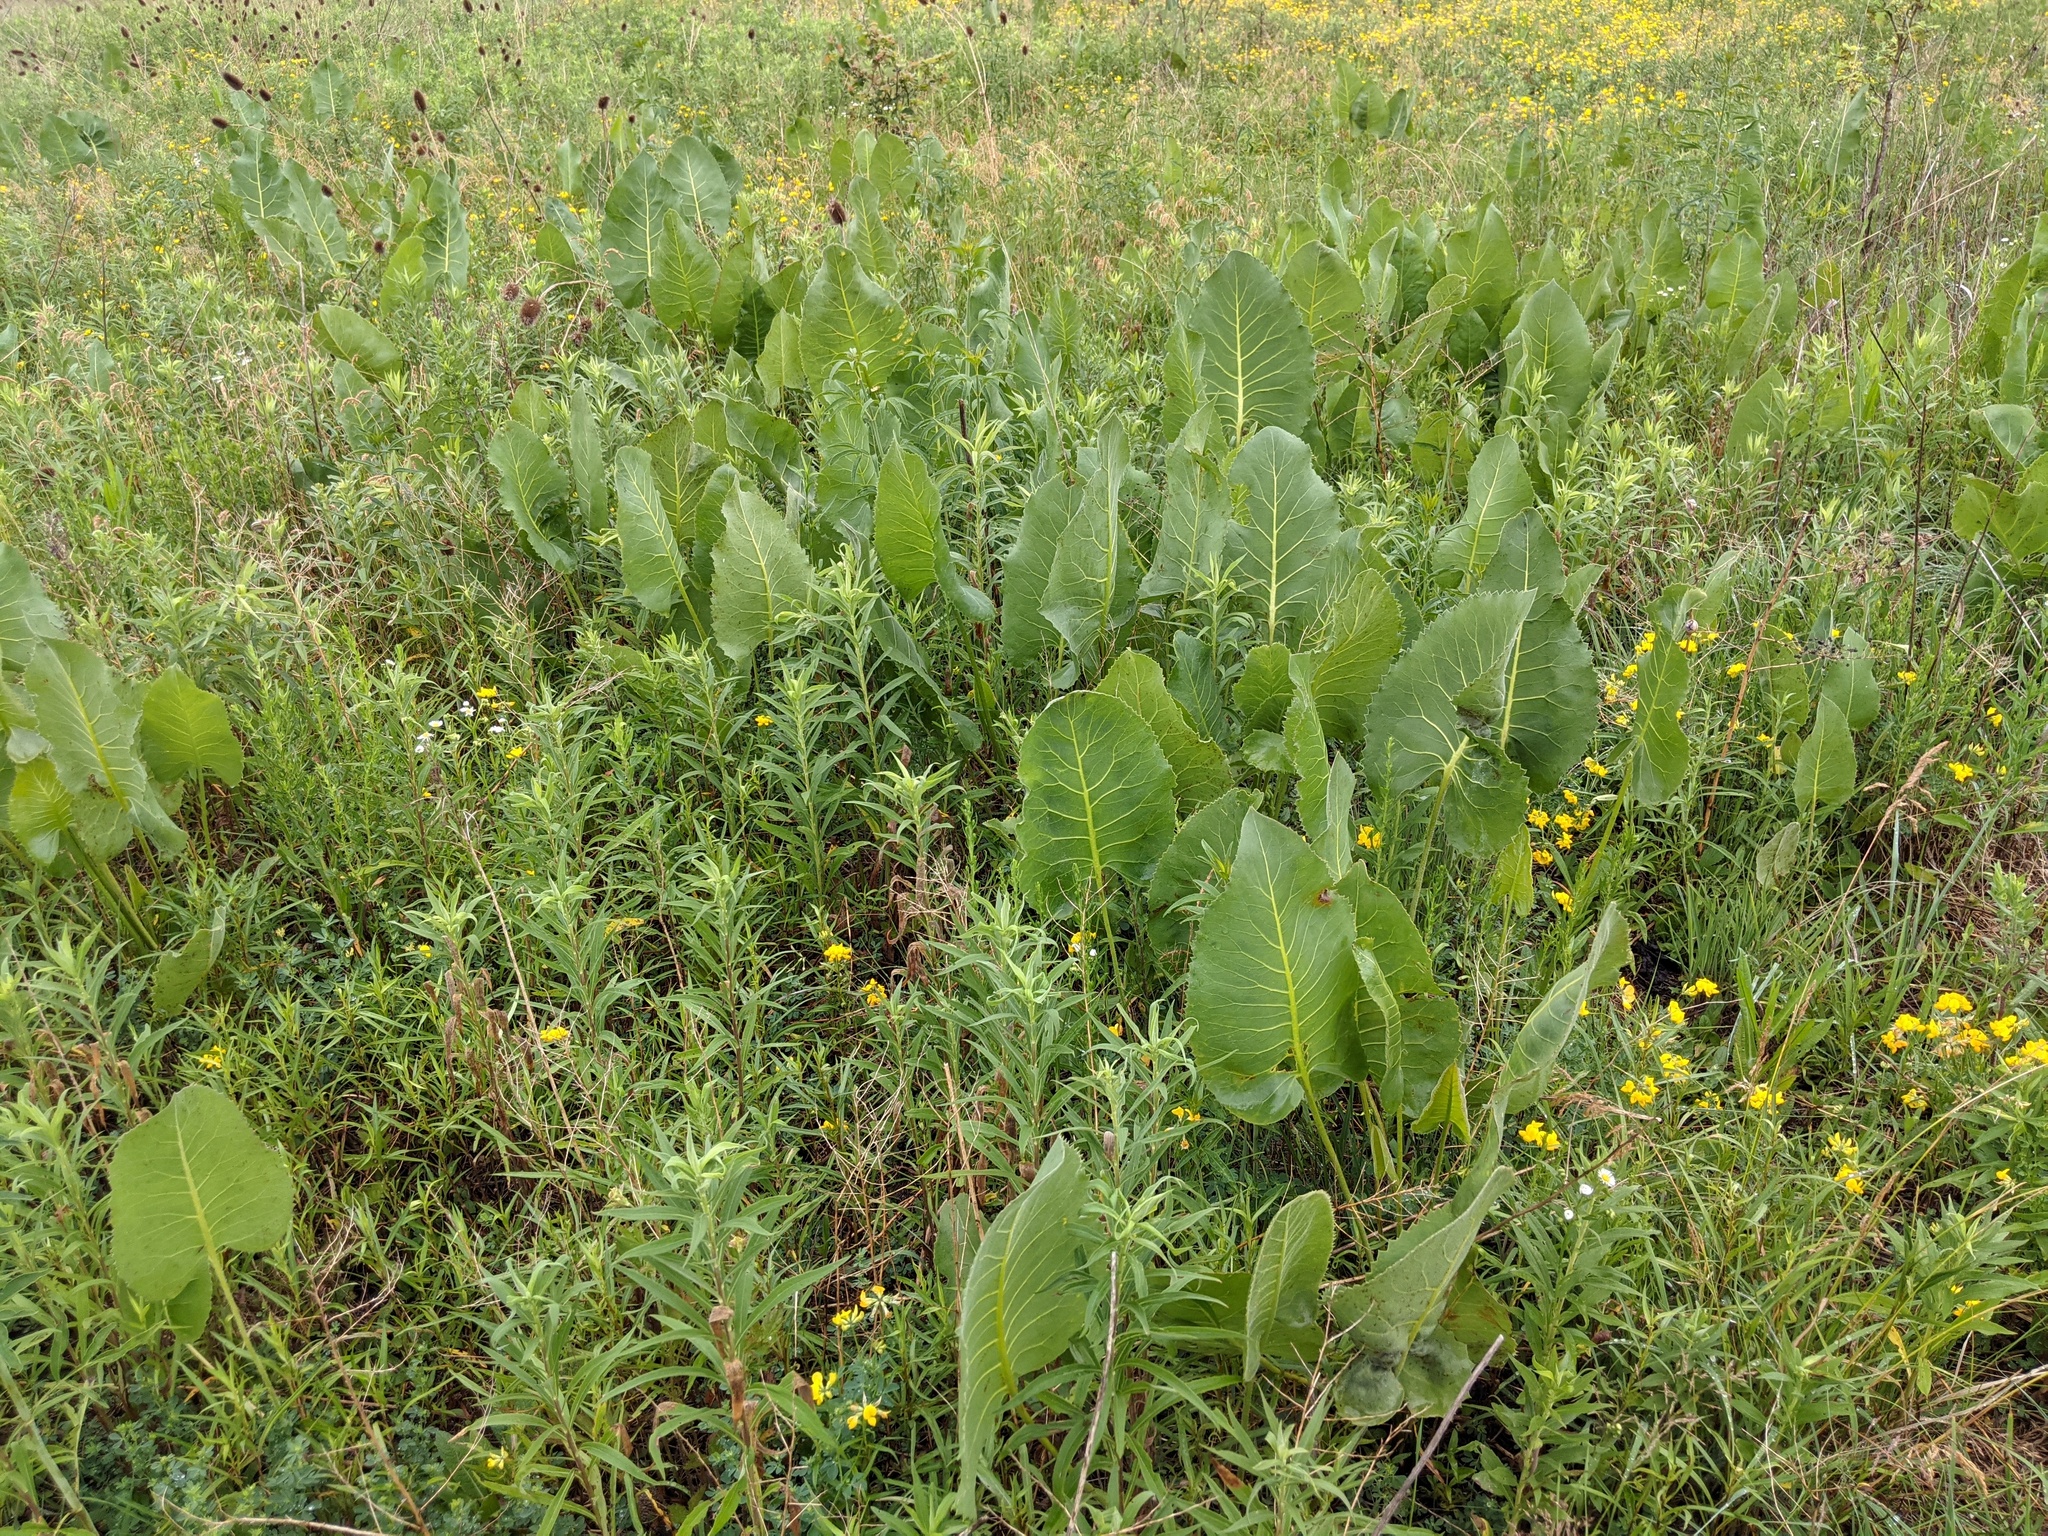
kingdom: Plantae
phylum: Tracheophyta
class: Magnoliopsida
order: Asterales
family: Asteraceae
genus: Silphium
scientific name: Silphium terebinthinaceum
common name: Basal-leaf rosinweed
